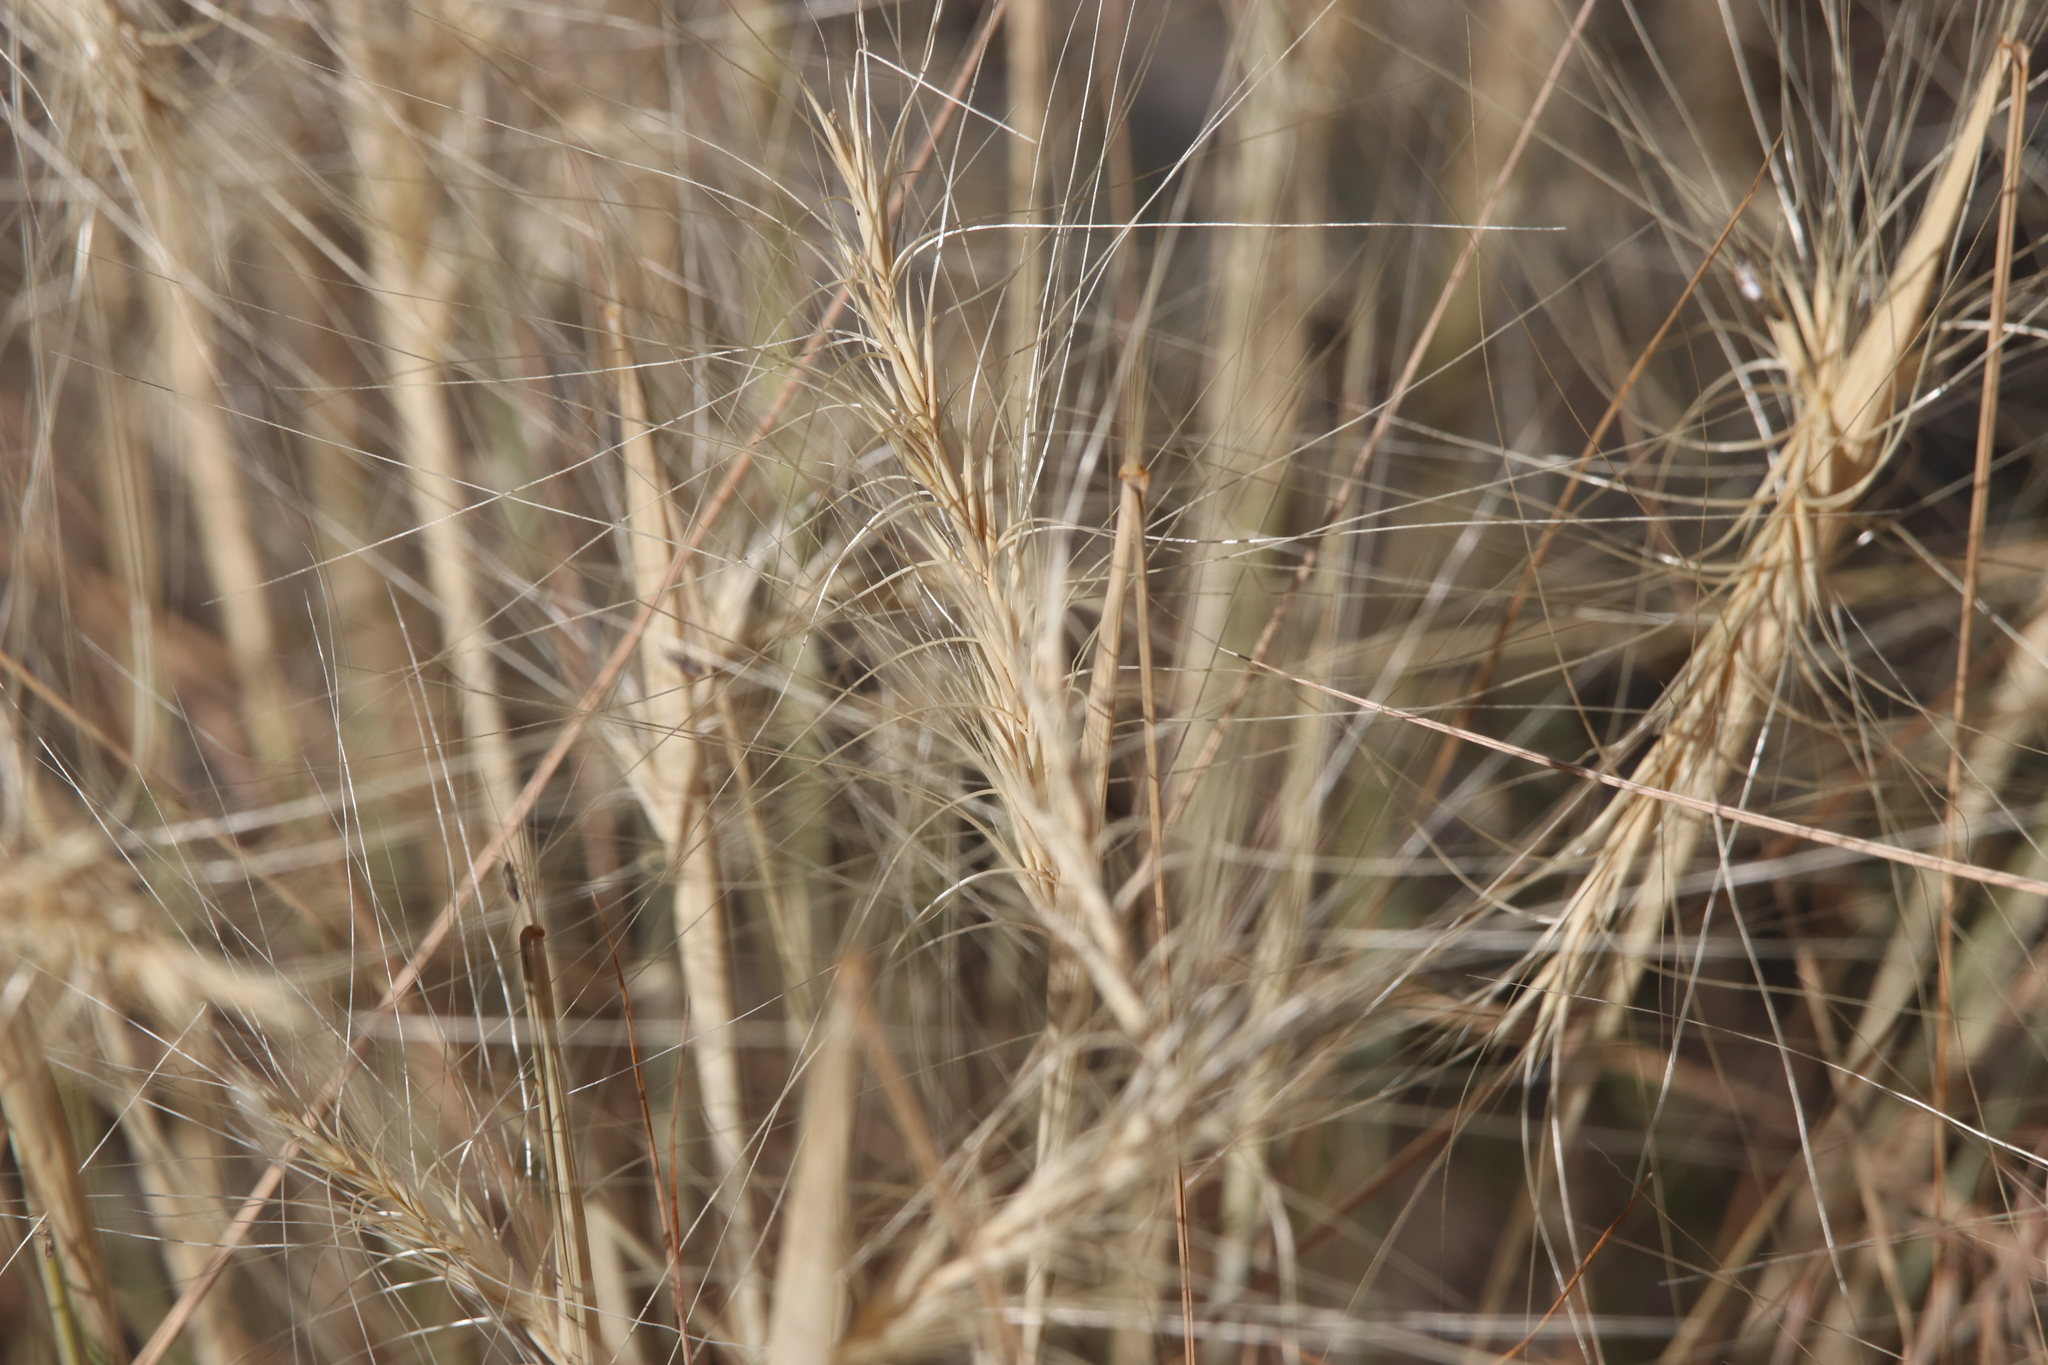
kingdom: Plantae
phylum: Tracheophyta
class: Liliopsida
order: Poales
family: Poaceae
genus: Elymus
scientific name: Elymus elymoides
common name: Bottlebrush squirreltail
